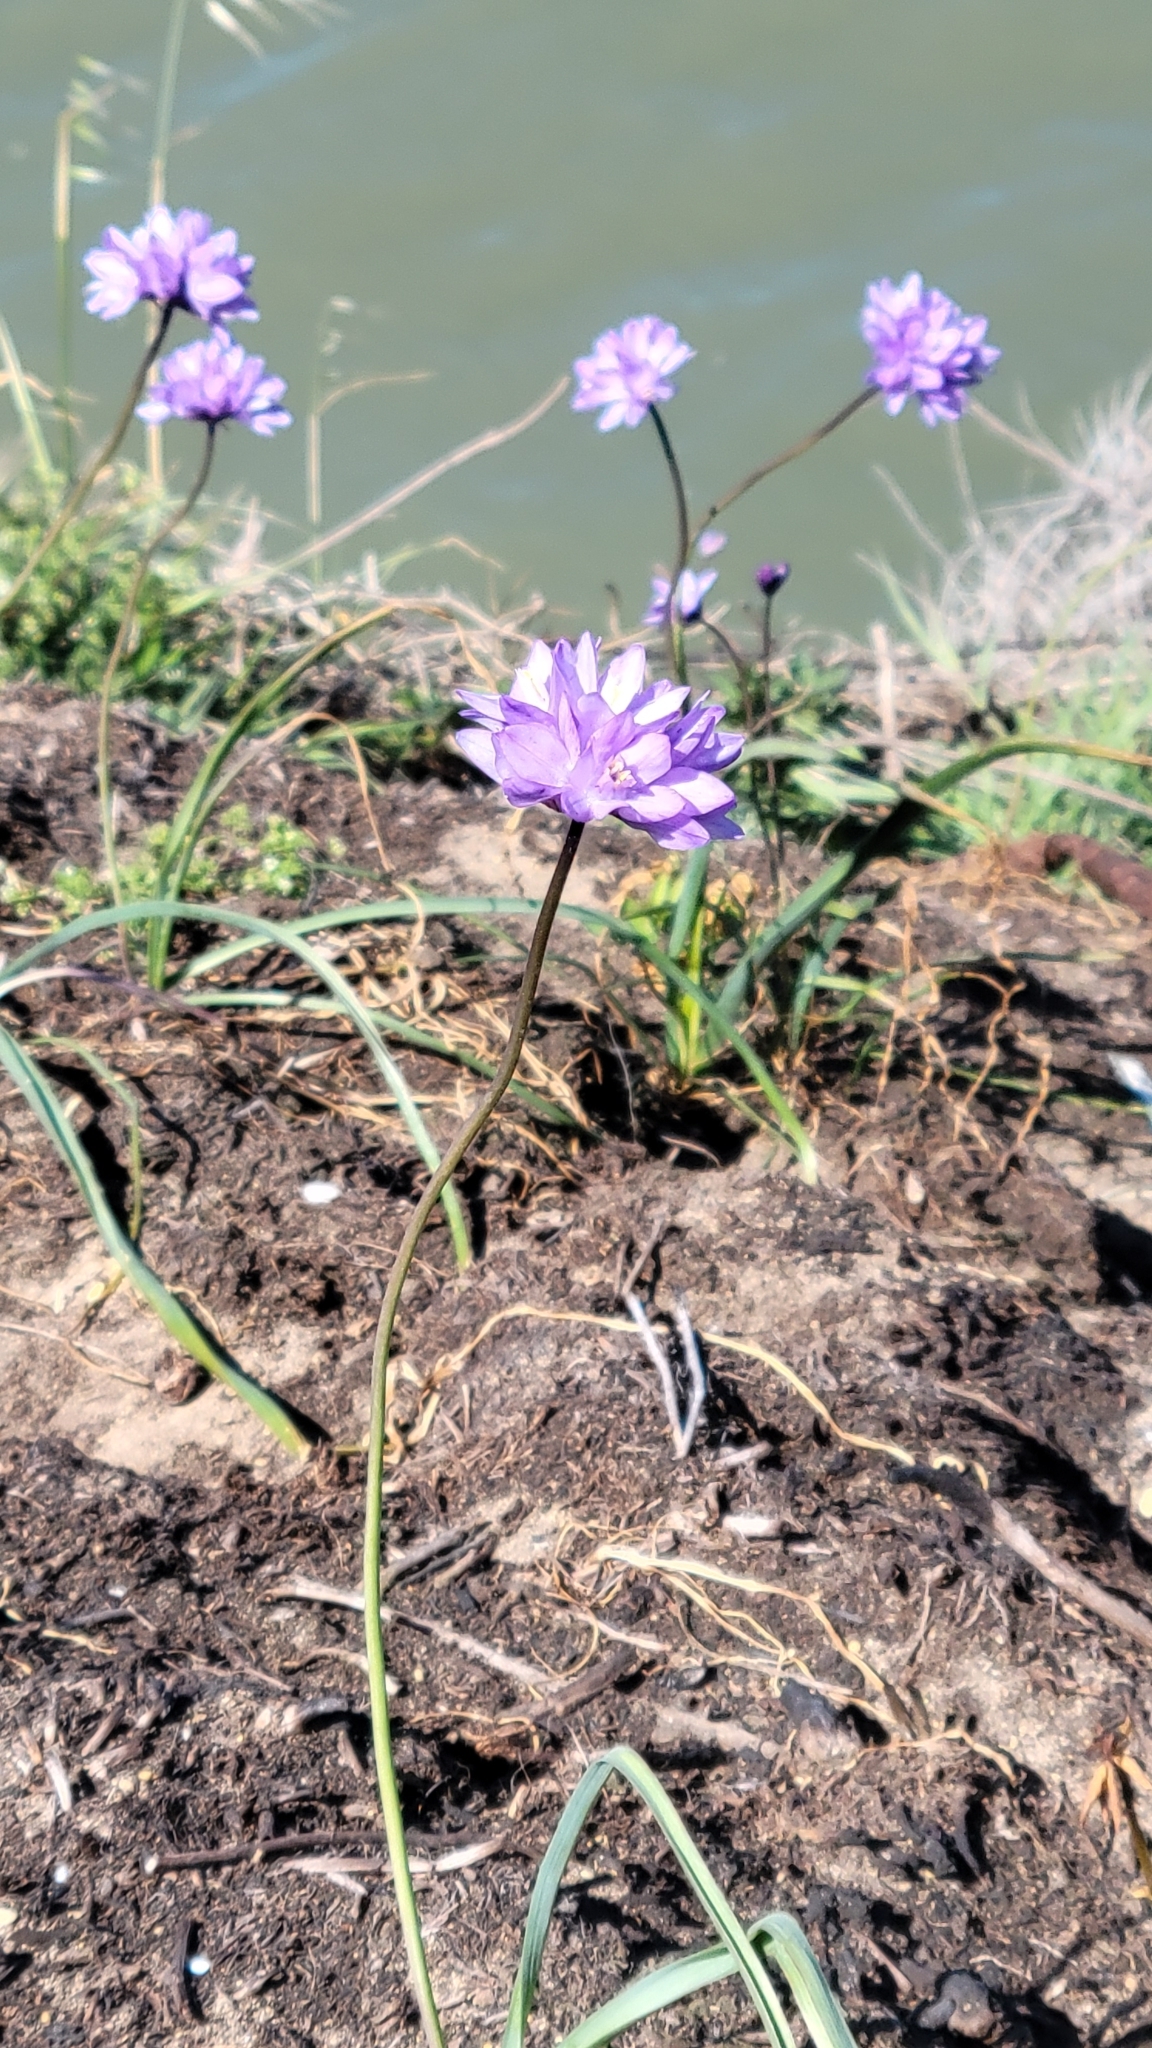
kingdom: Plantae
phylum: Tracheophyta
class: Liliopsida
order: Asparagales
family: Asparagaceae
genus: Dipterostemon
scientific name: Dipterostemon capitatus
